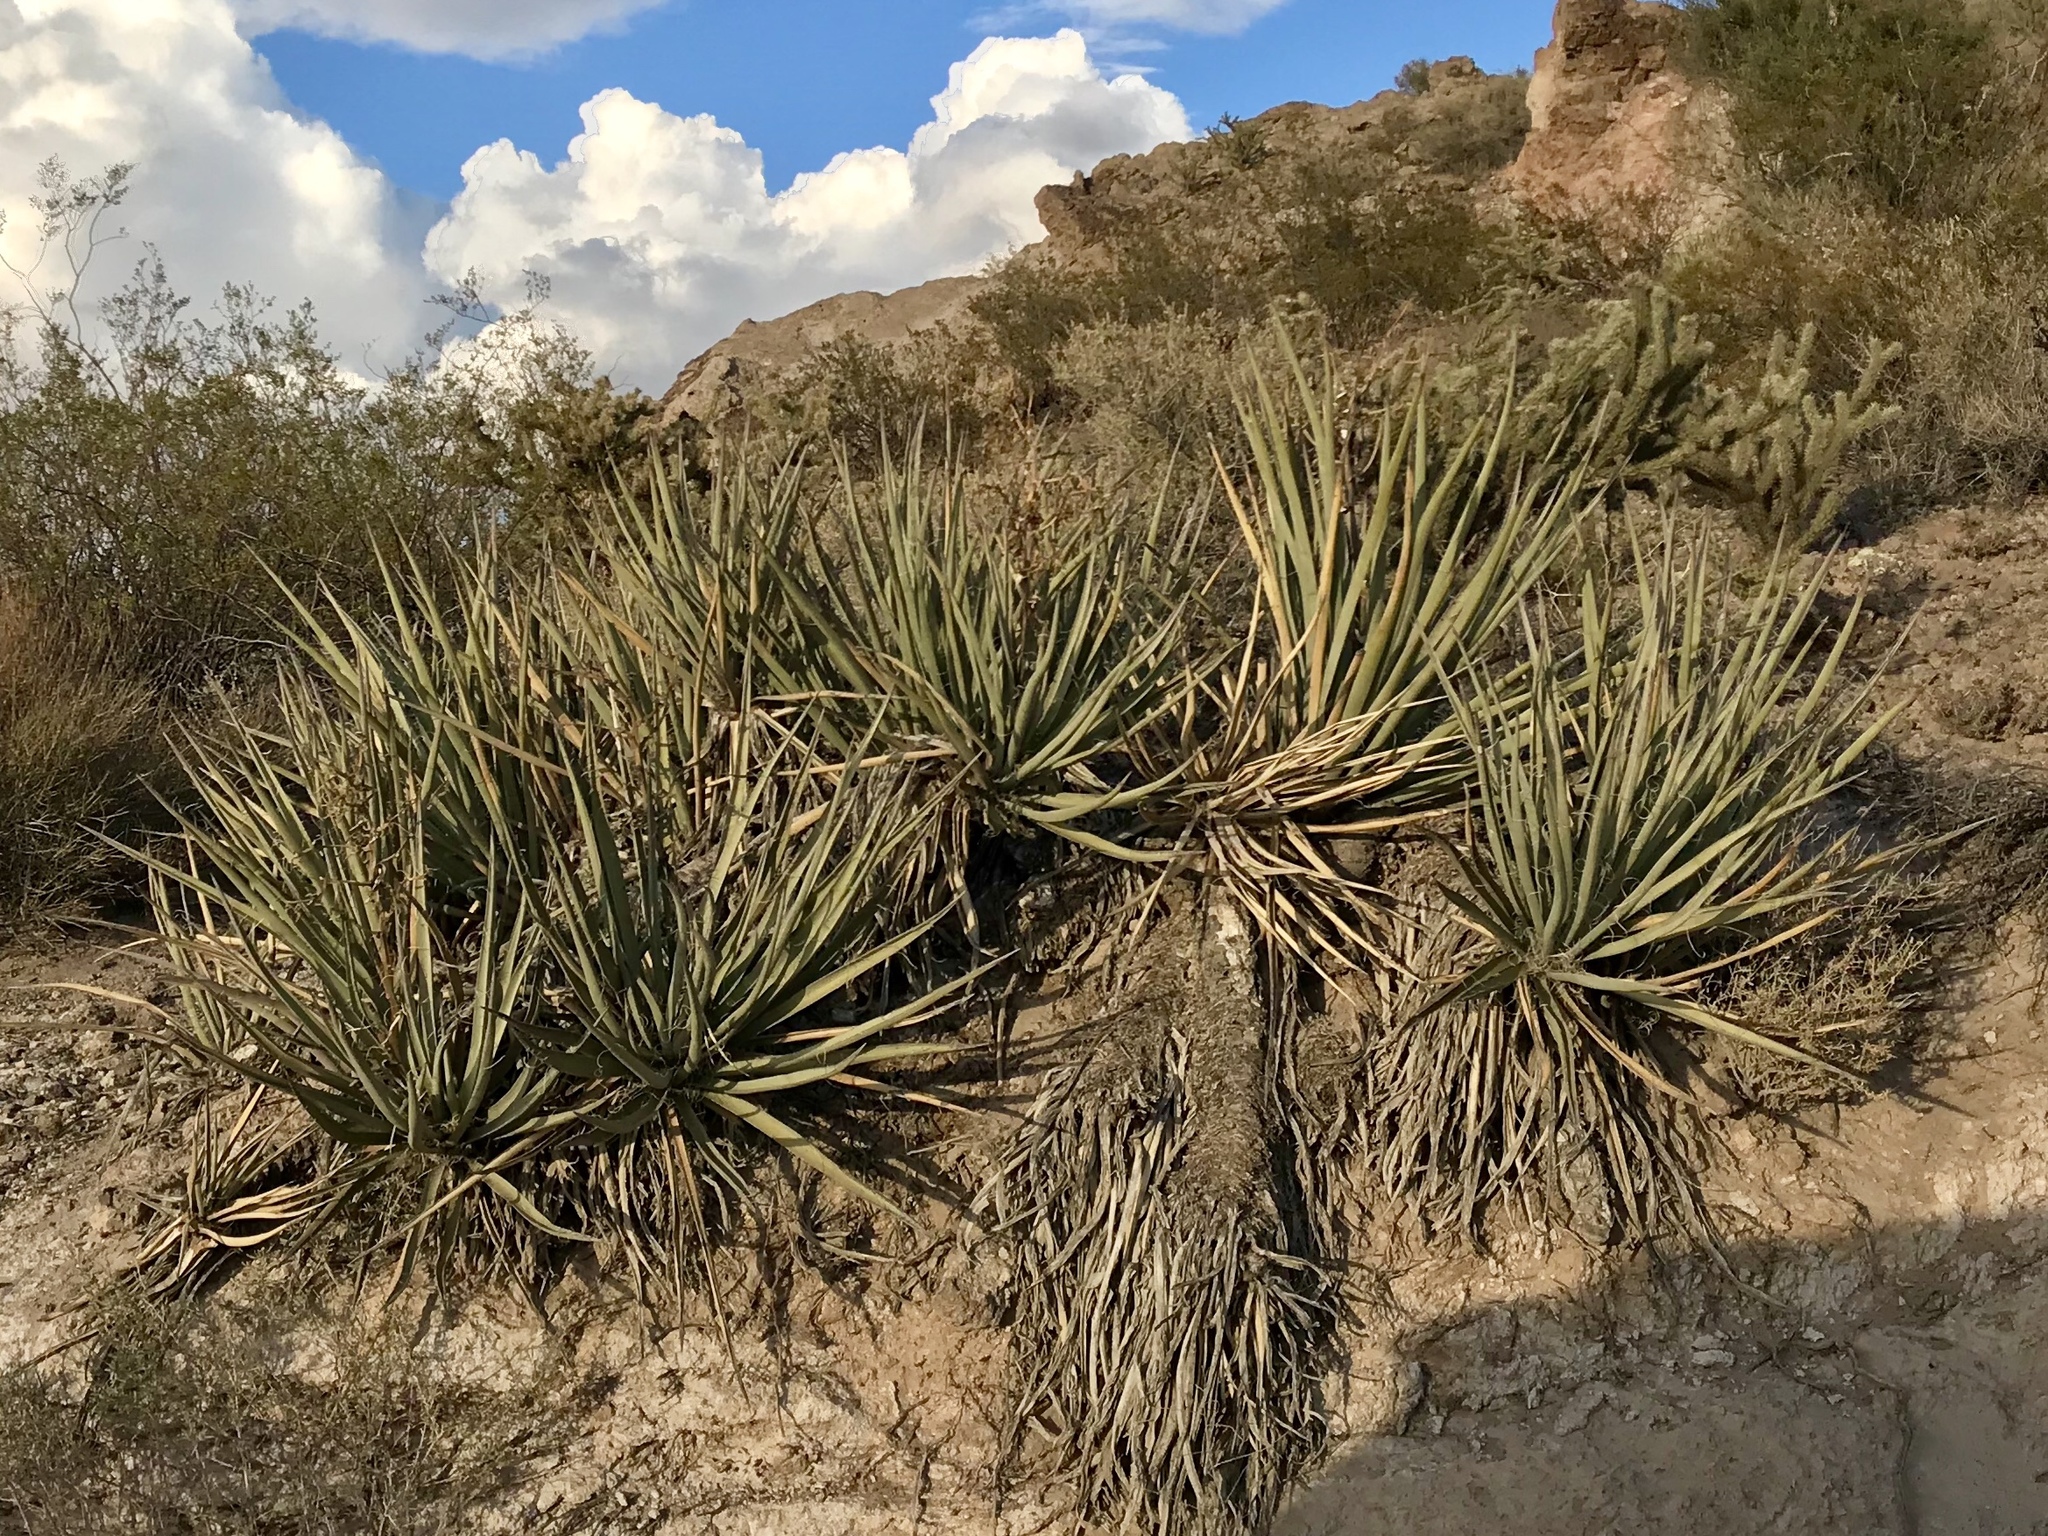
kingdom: Plantae
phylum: Tracheophyta
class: Liliopsida
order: Asparagales
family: Asparagaceae
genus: Yucca
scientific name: Yucca baccata
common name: Banana yucca
